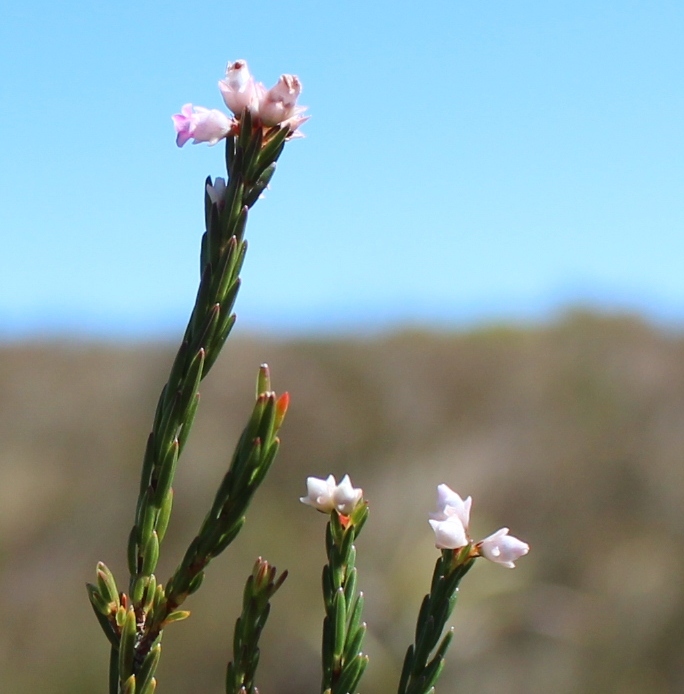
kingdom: Plantae
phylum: Tracheophyta
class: Magnoliopsida
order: Ericales
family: Ericaceae
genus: Erica
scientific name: Erica articularis
